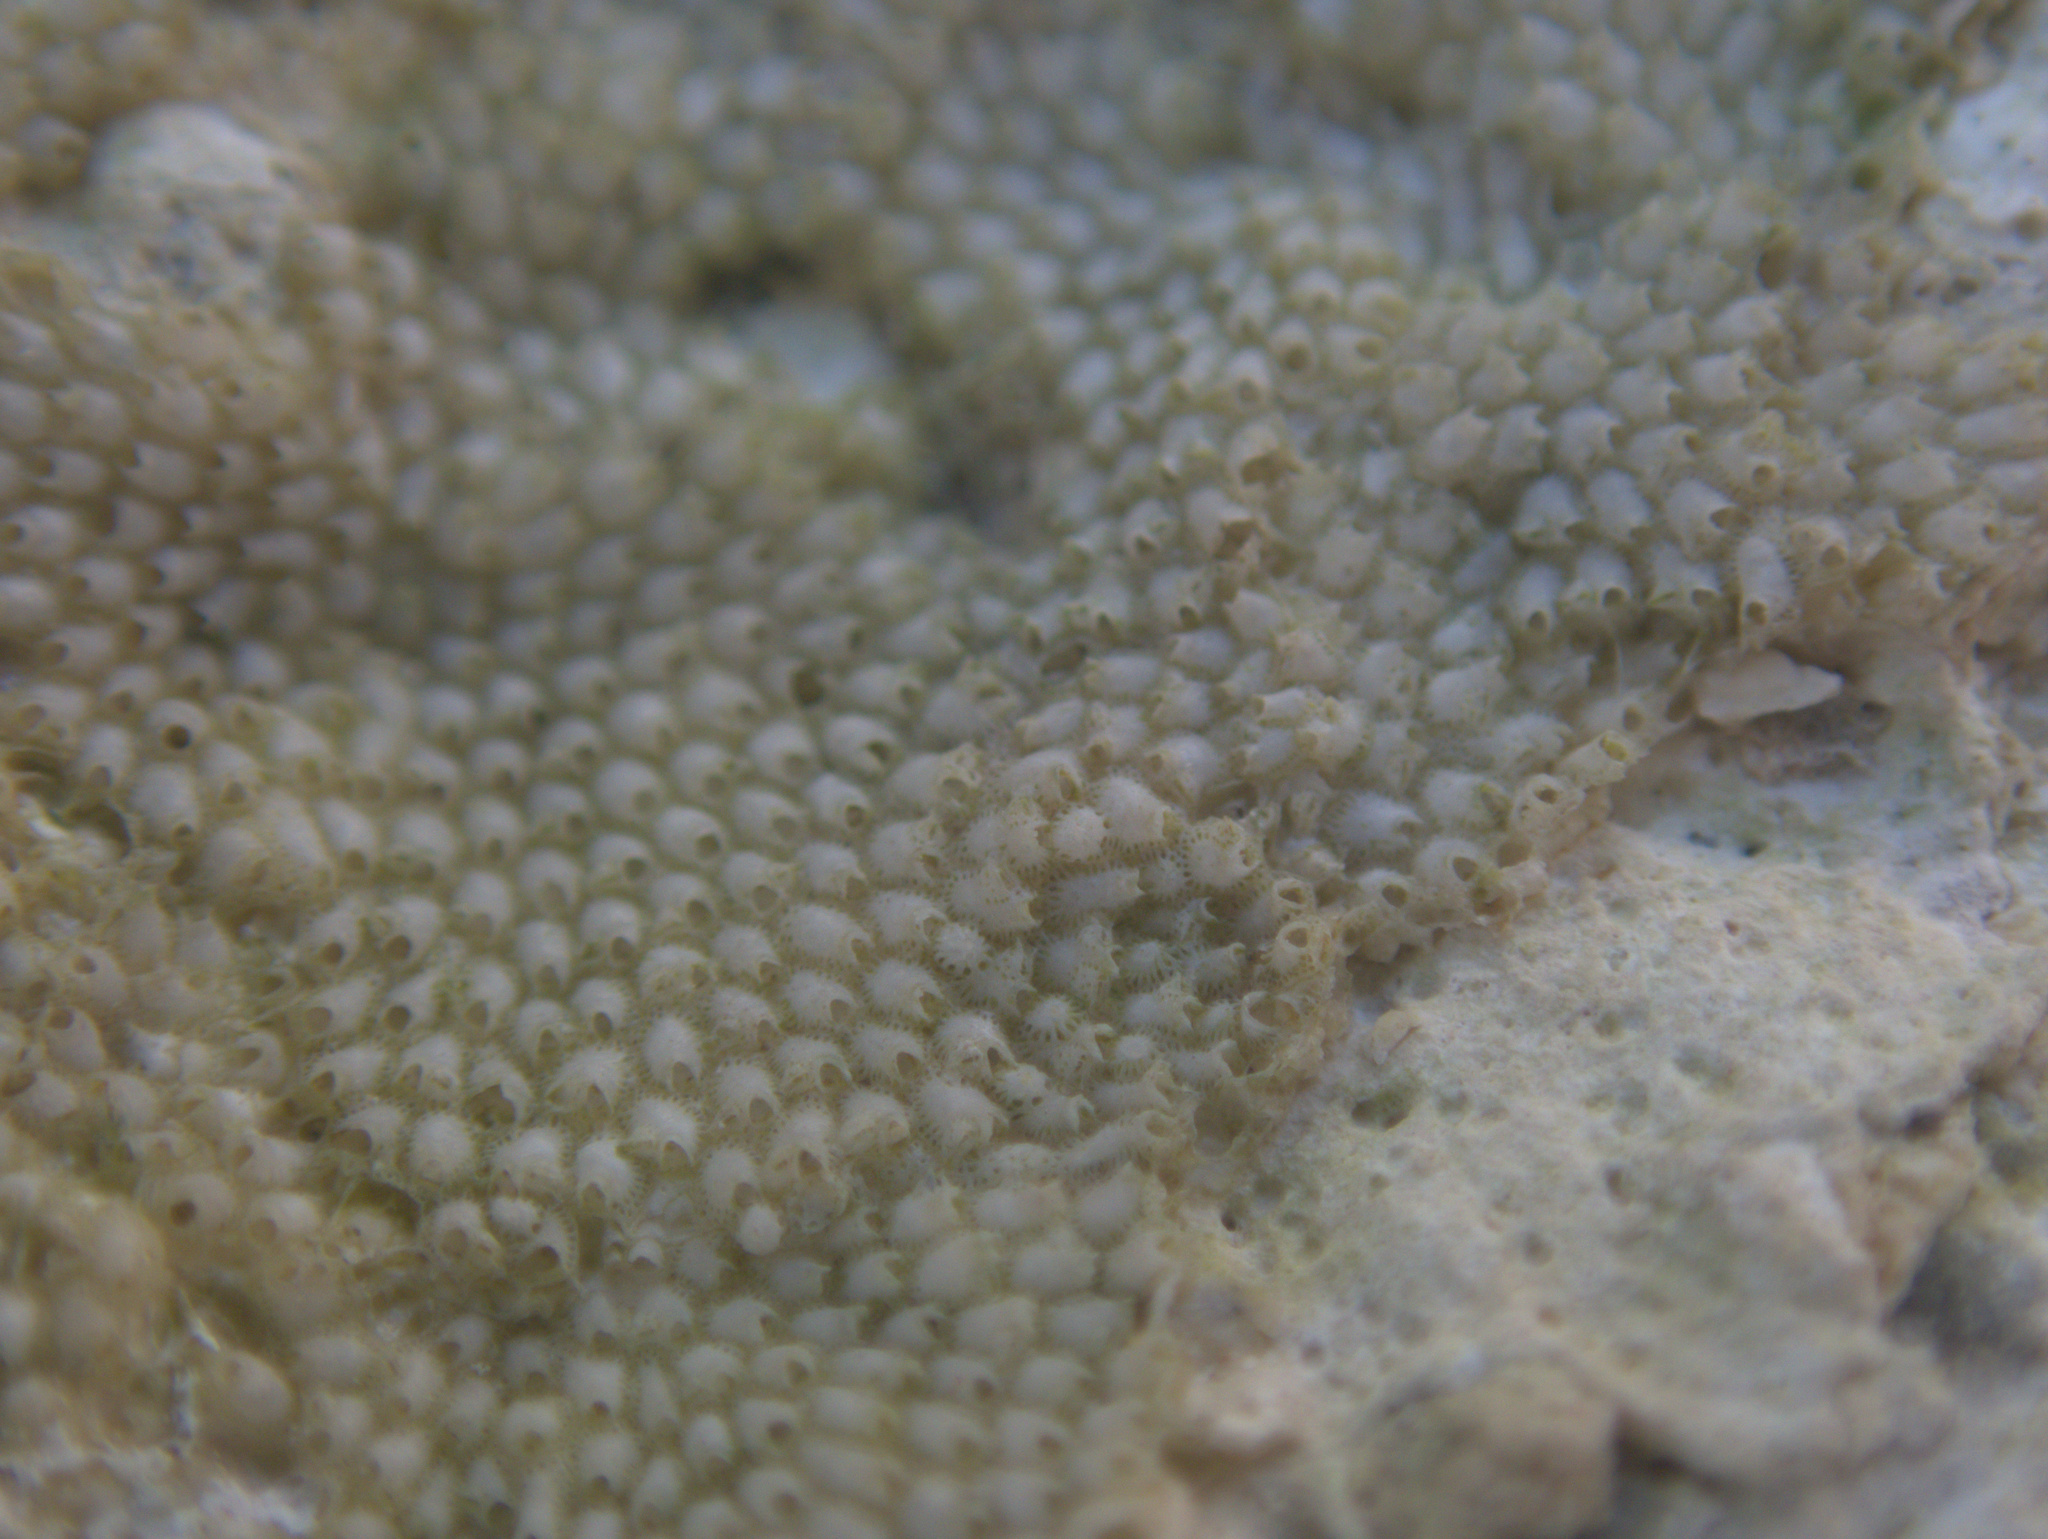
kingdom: Animalia
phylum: Bryozoa
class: Gymnolaemata
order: Cheilostomatida
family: Exochellidae
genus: Escharoides
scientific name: Escharoides angela
